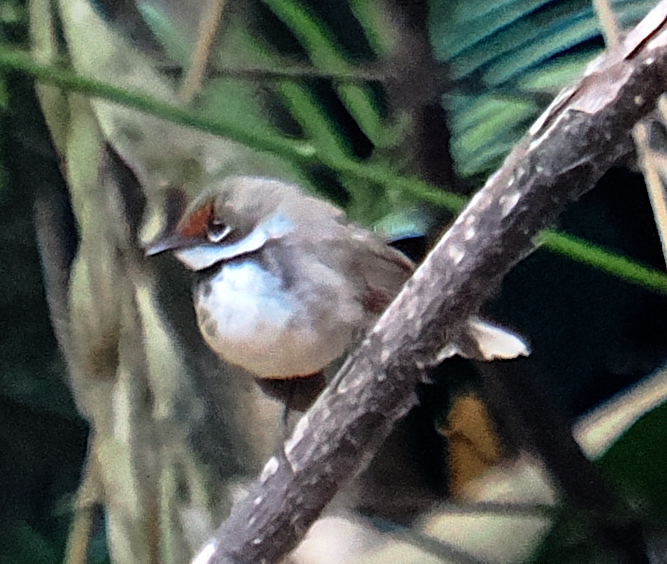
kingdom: Animalia
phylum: Chordata
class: Aves
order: Passeriformes
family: Rhipiduridae
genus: Rhipidura
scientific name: Rhipidura
